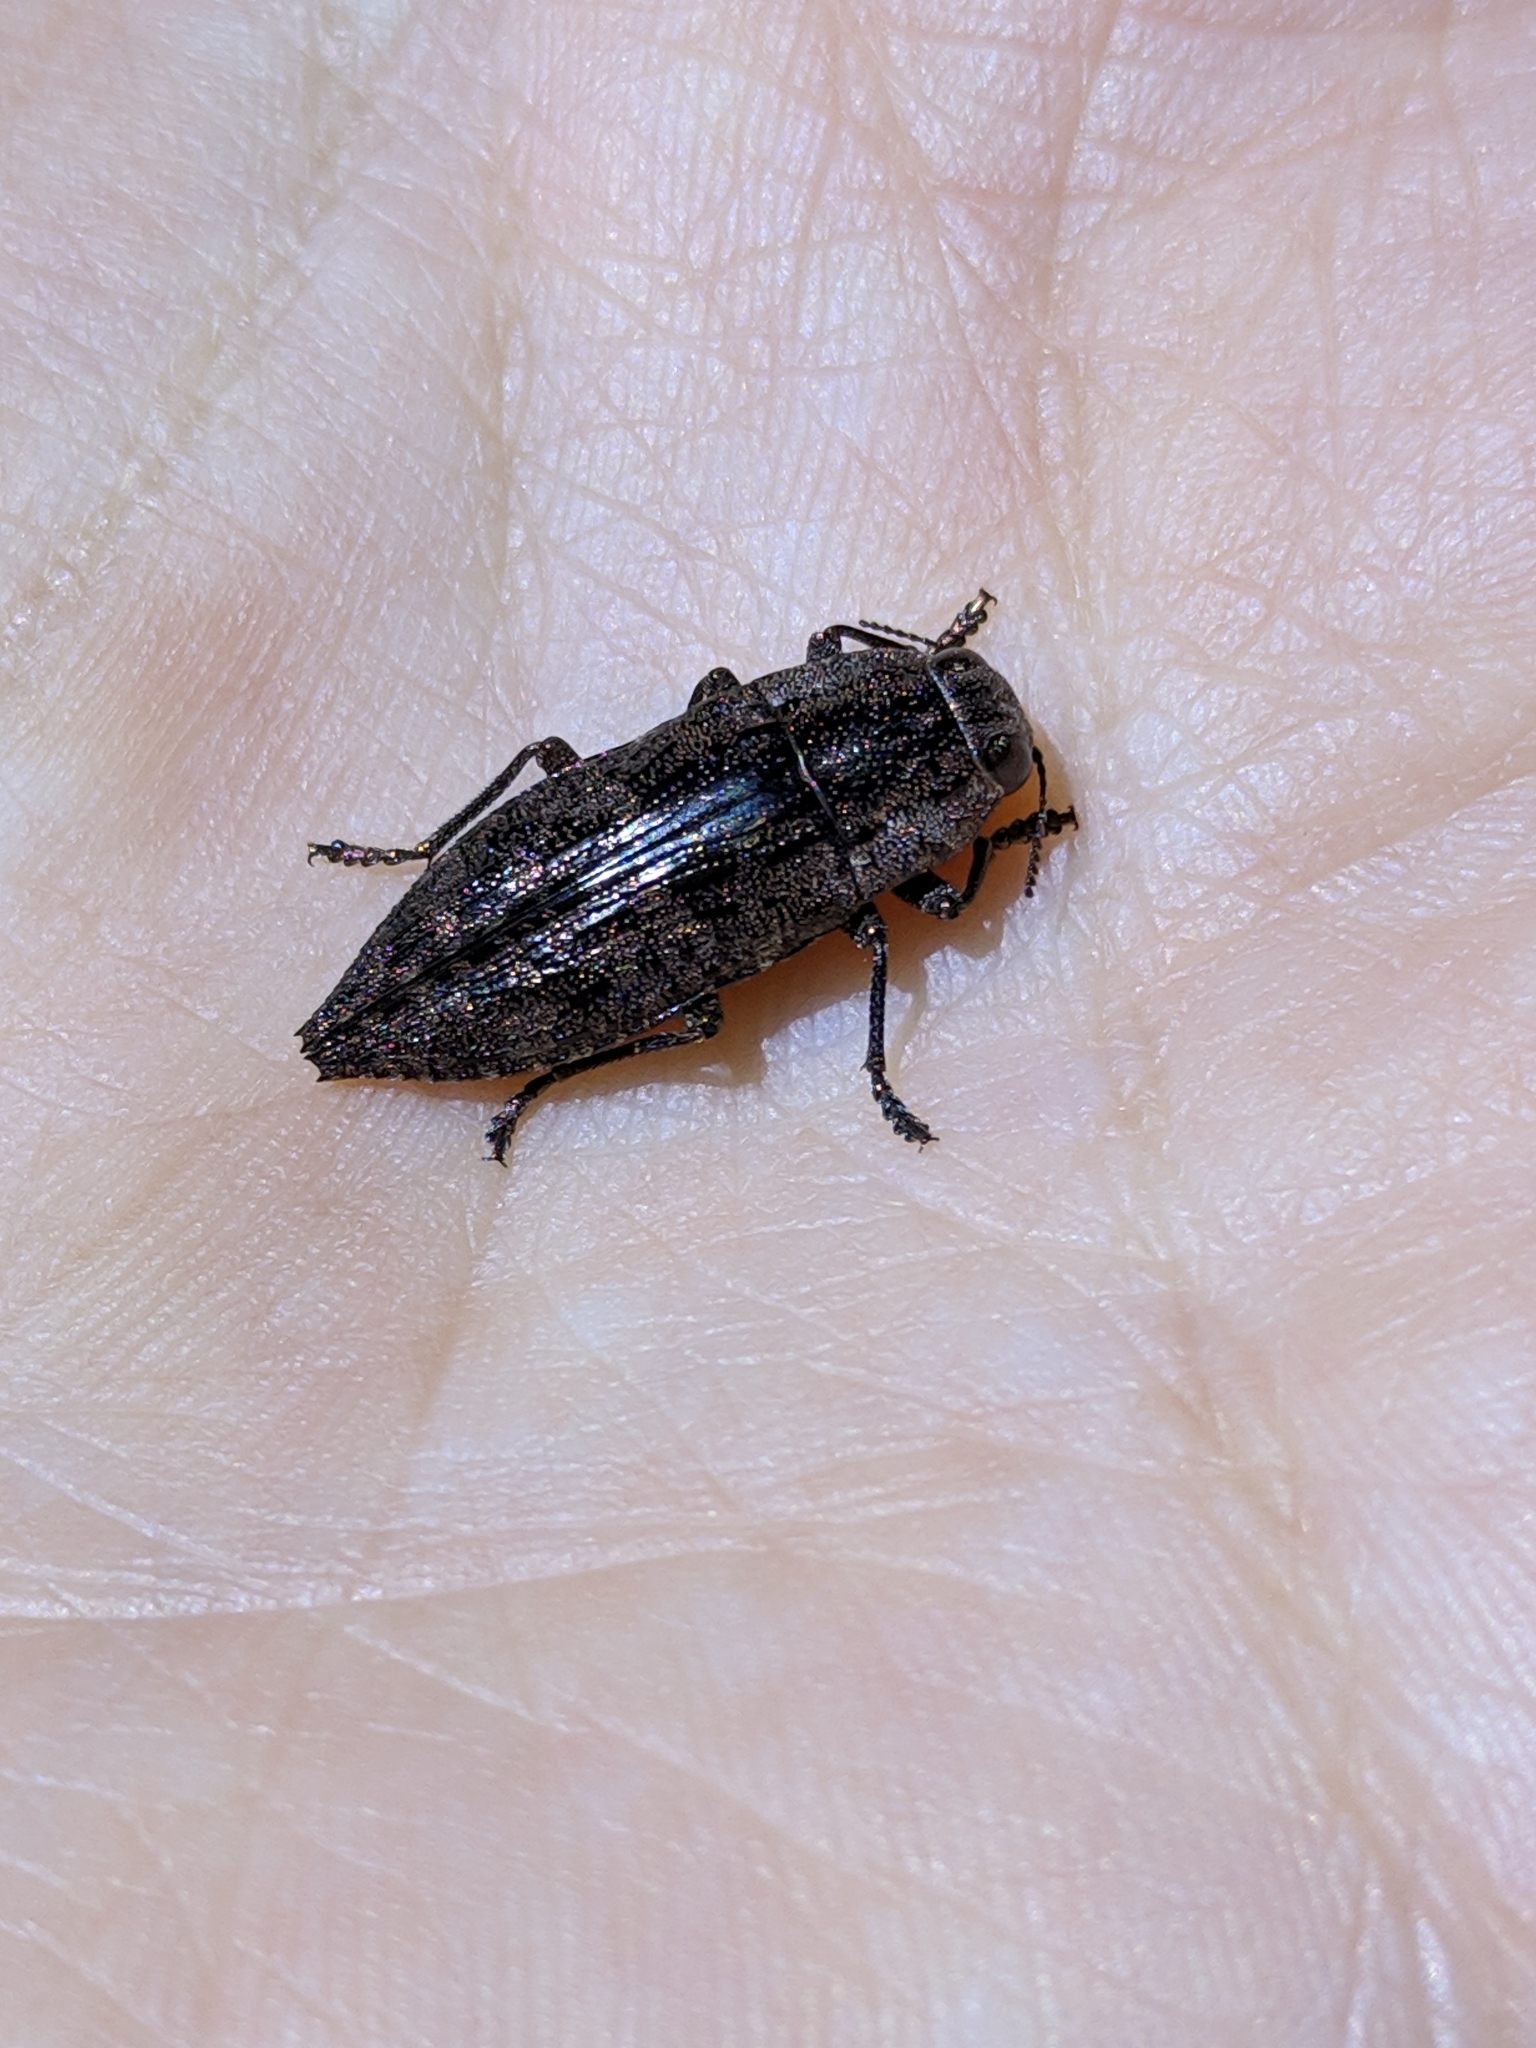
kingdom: Animalia
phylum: Arthropoda
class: Insecta
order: Coleoptera
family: Buprestidae
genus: Dicerca
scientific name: Dicerca obscura
